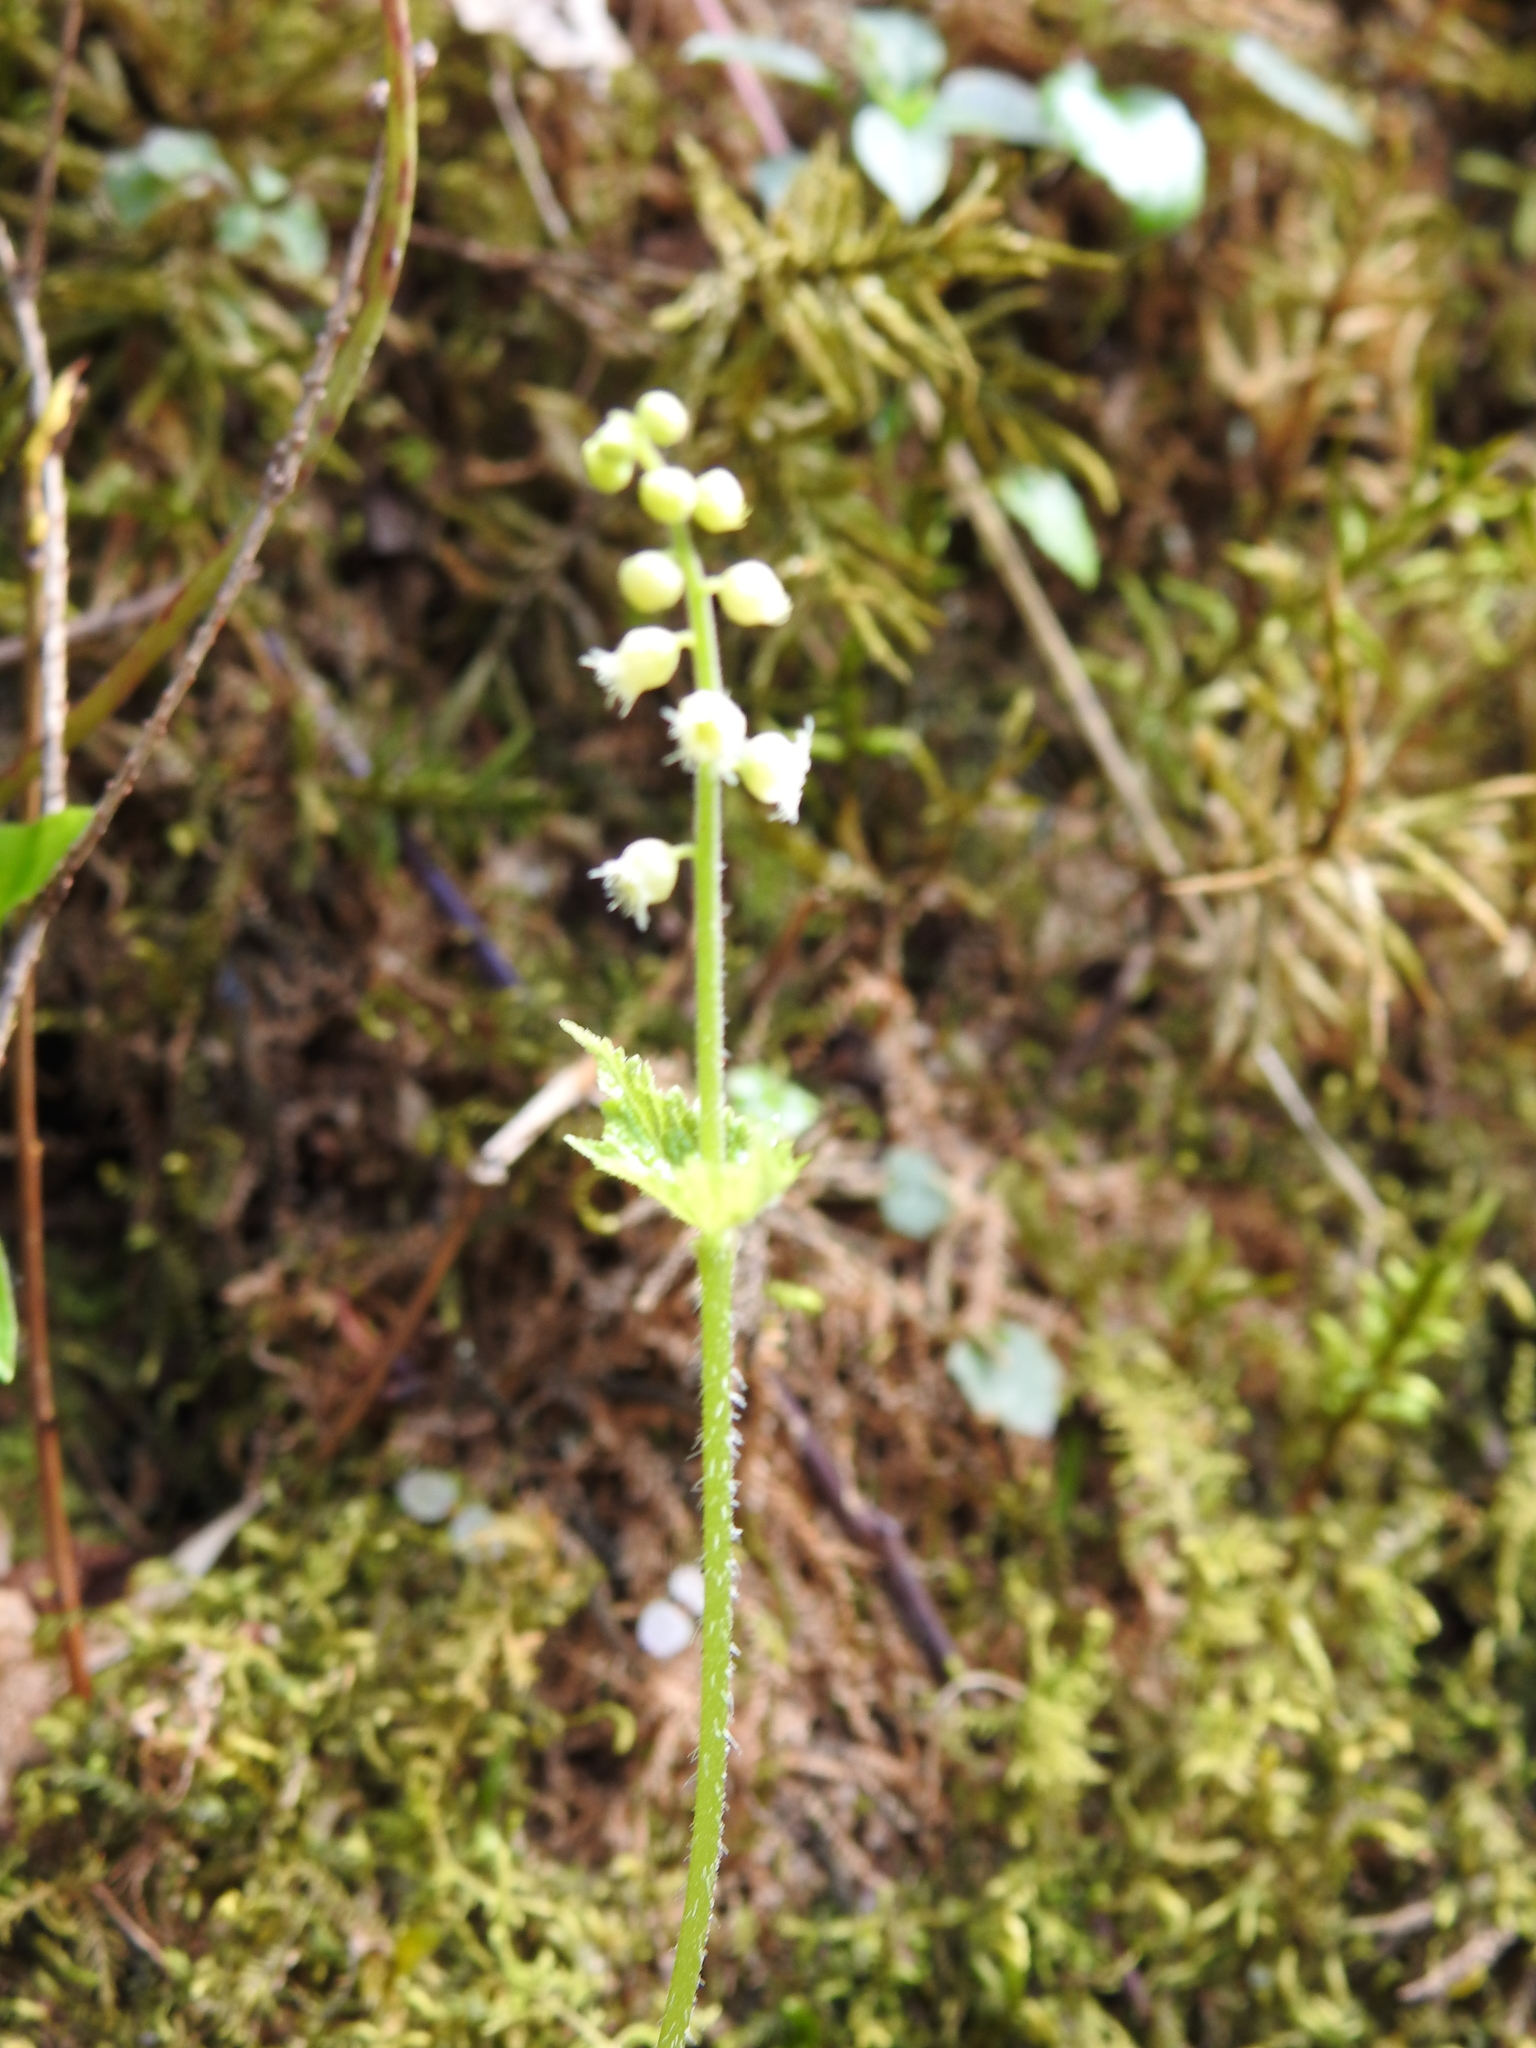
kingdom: Plantae
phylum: Tracheophyta
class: Magnoliopsida
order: Saxifragales
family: Saxifragaceae
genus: Mitella
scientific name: Mitella diphylla
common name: Coolwort
